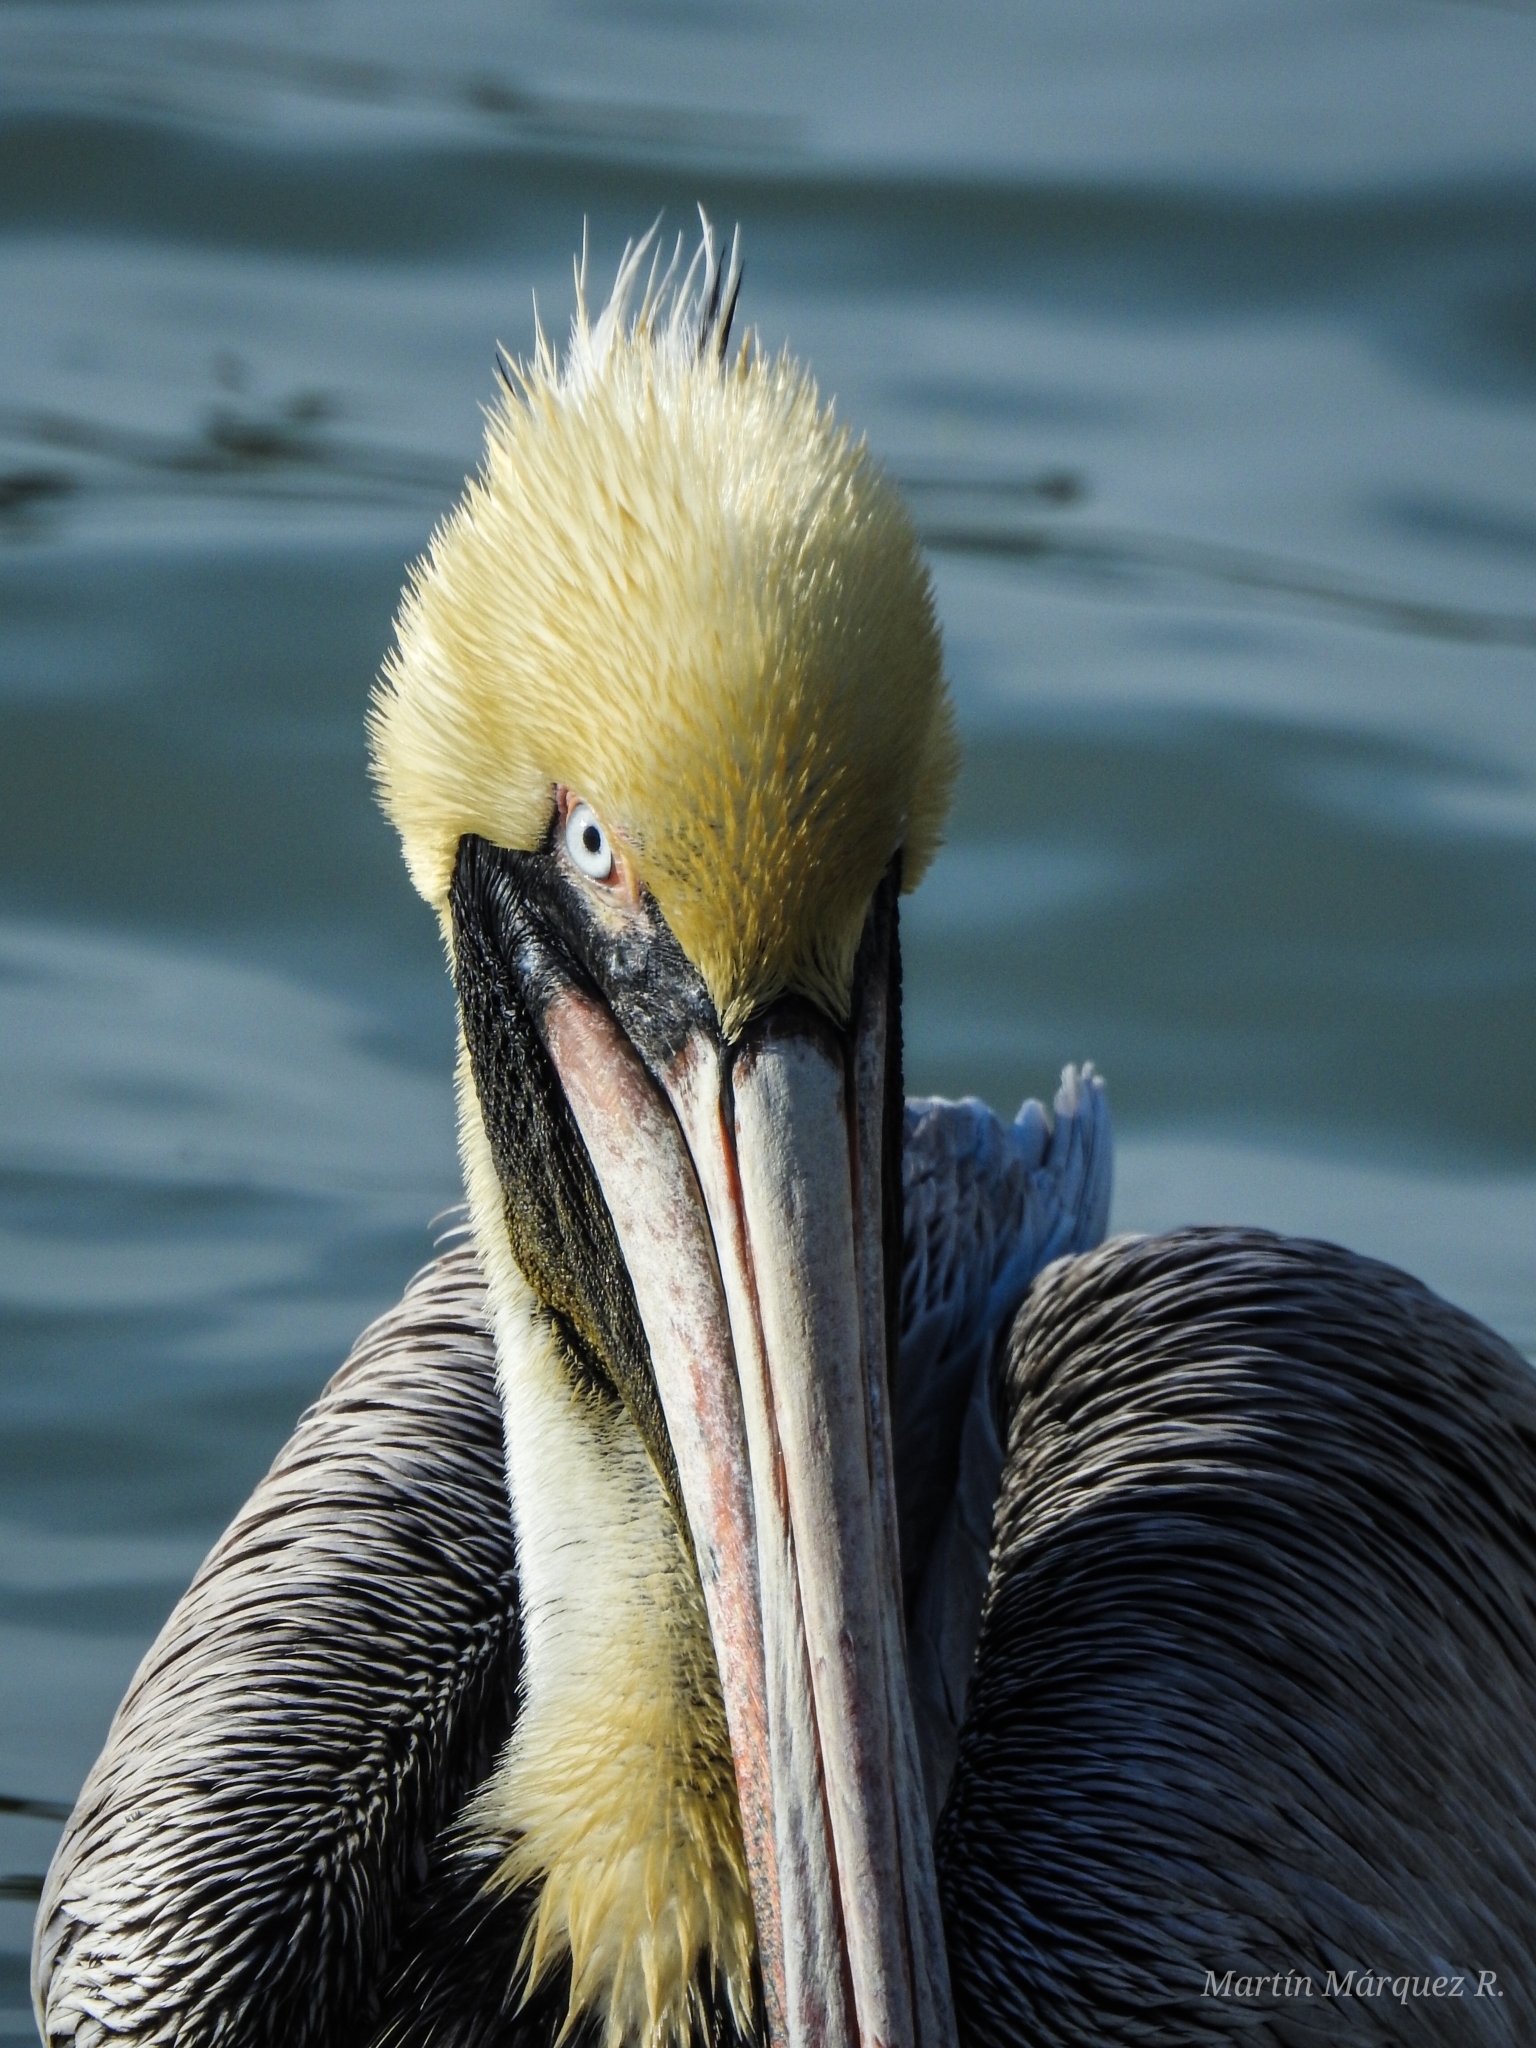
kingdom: Animalia
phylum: Chordata
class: Aves
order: Pelecaniformes
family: Pelecanidae
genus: Pelecanus
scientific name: Pelecanus occidentalis
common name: Brown pelican
